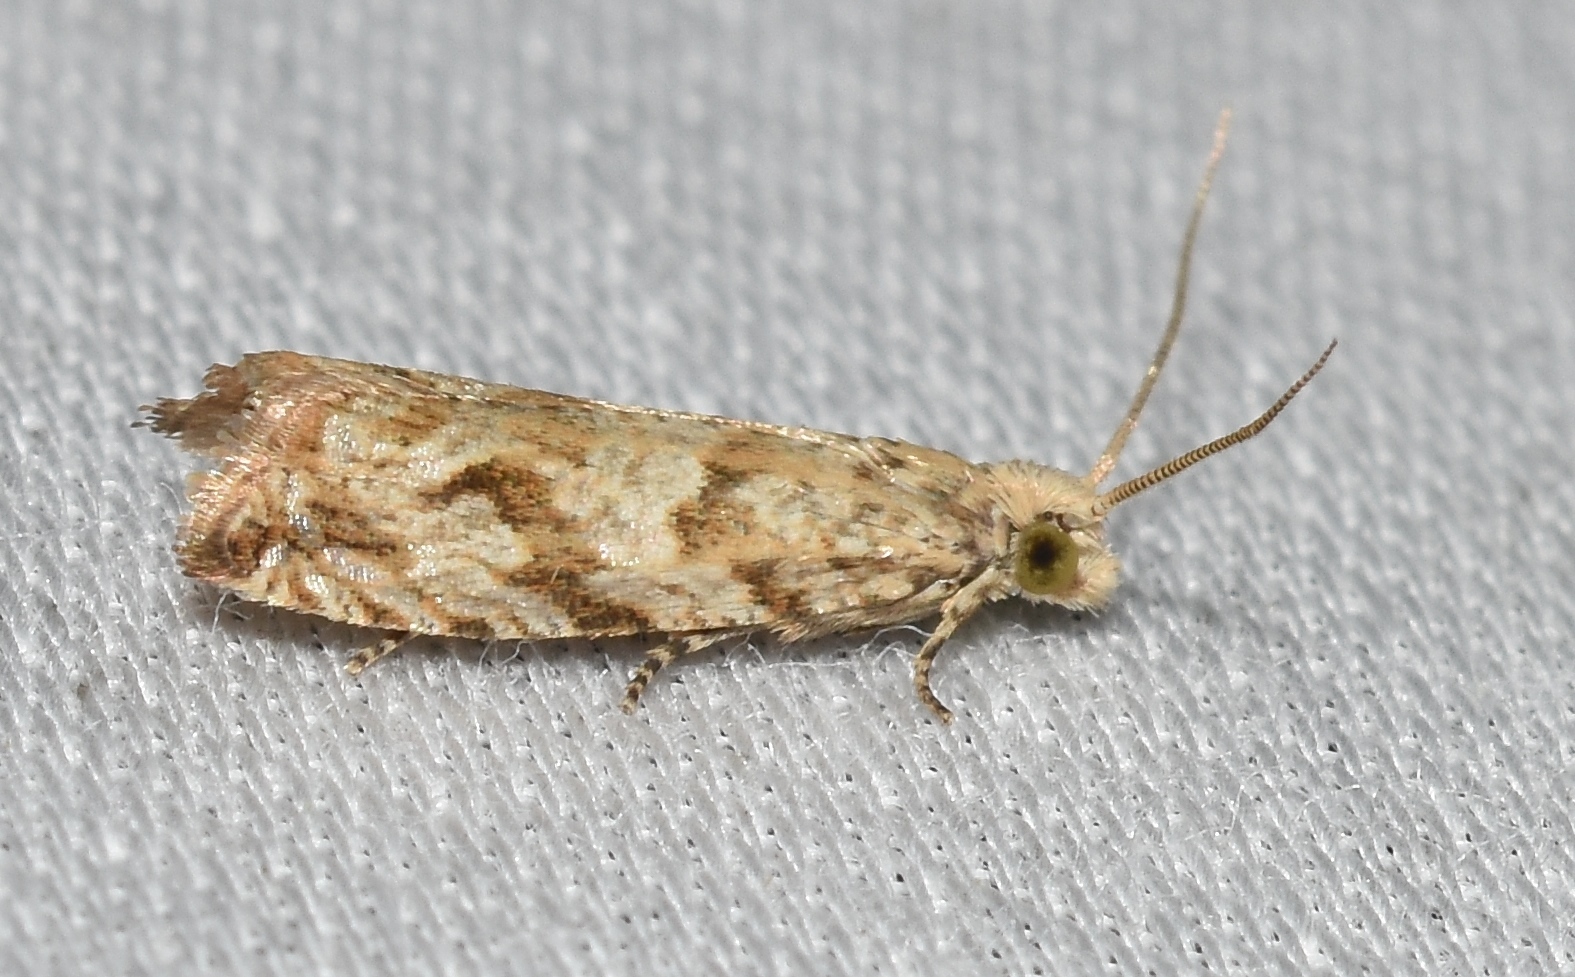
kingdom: Animalia
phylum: Arthropoda
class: Insecta
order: Lepidoptera
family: Tortricidae
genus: Bactra
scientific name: Bactra furfurana
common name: Mottled marble
